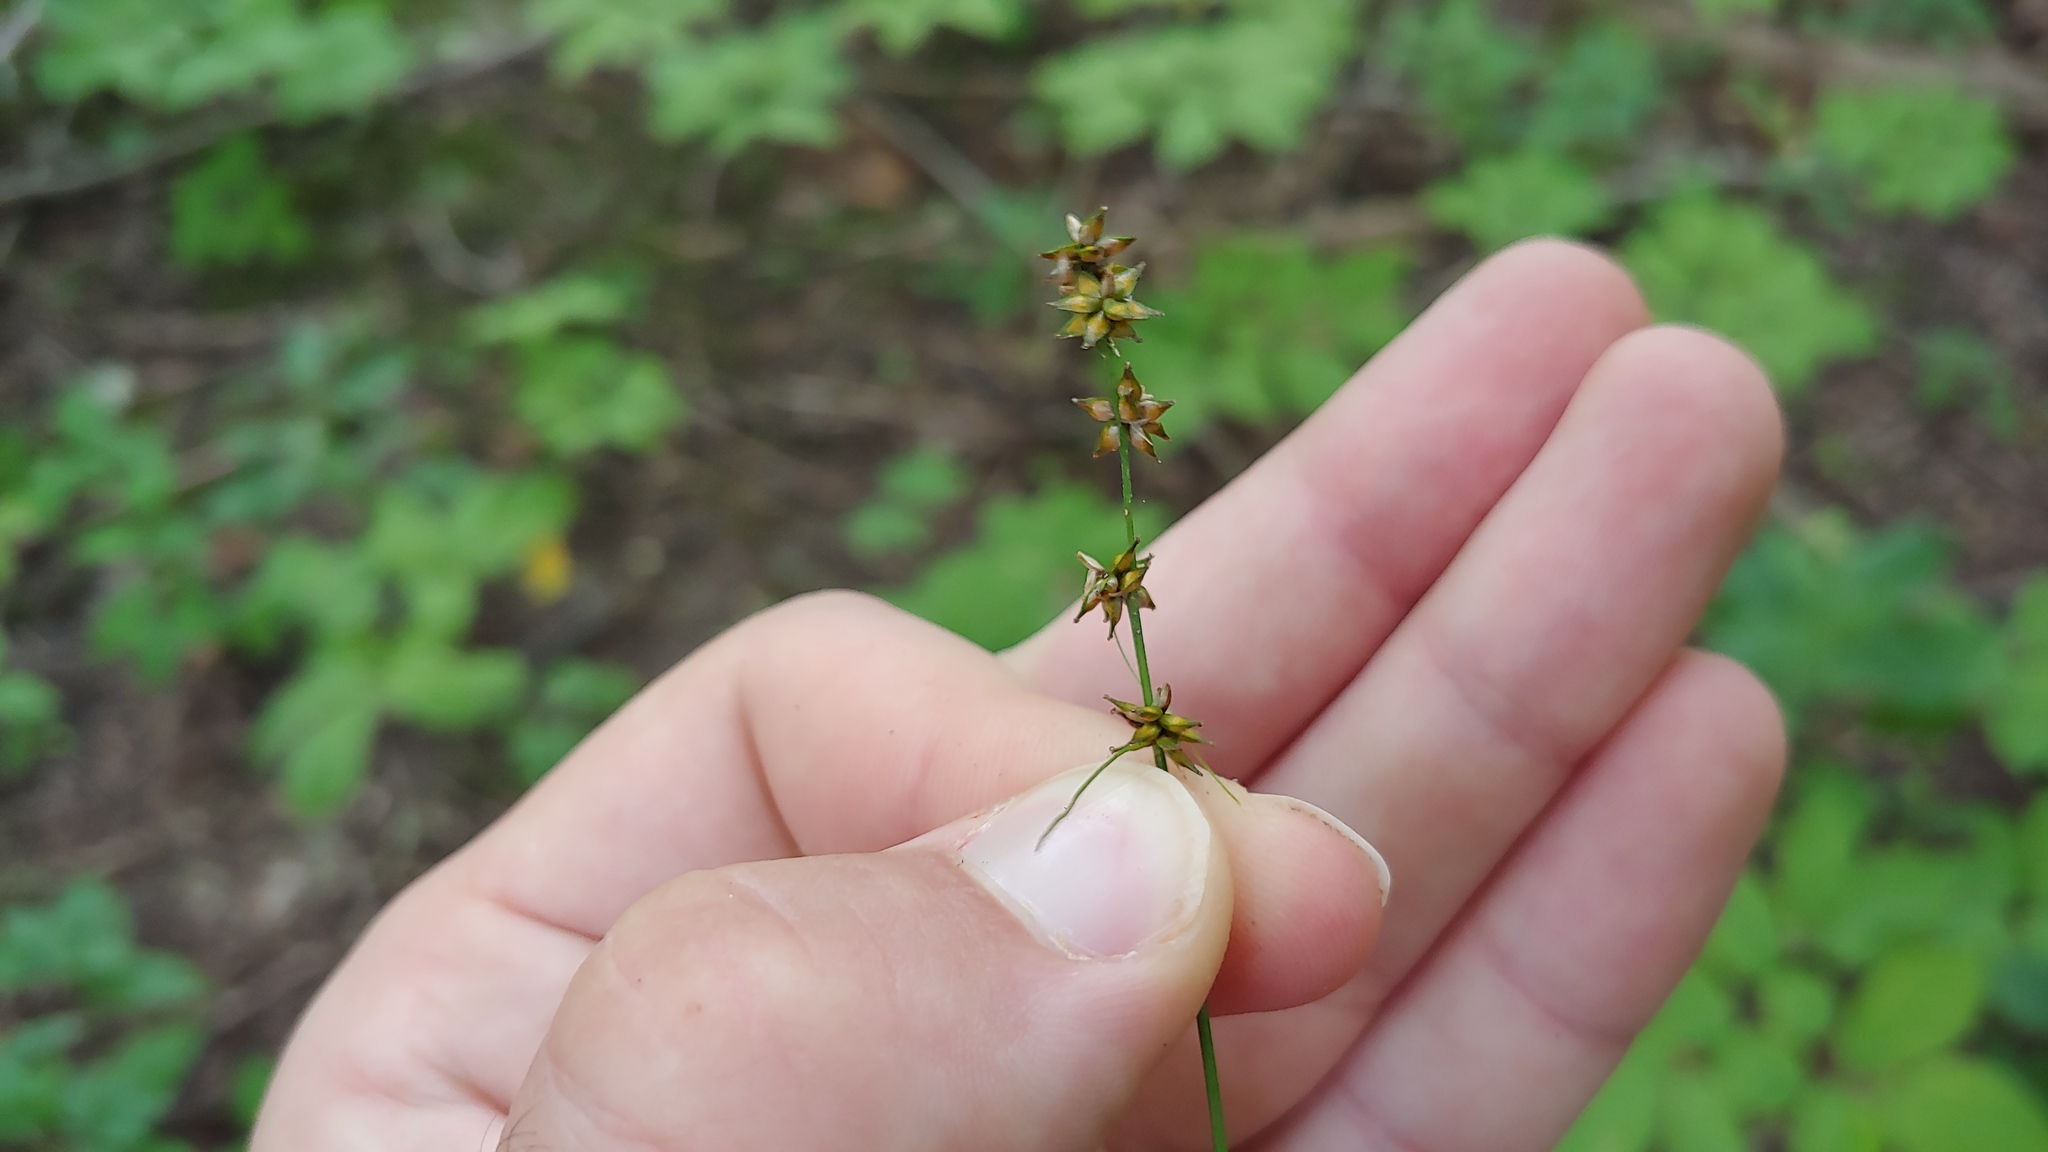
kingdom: Plantae
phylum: Tracheophyta
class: Liliopsida
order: Poales
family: Cyperaceae
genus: Carex
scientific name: Carex rosea
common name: Curly-styled wood sedge
